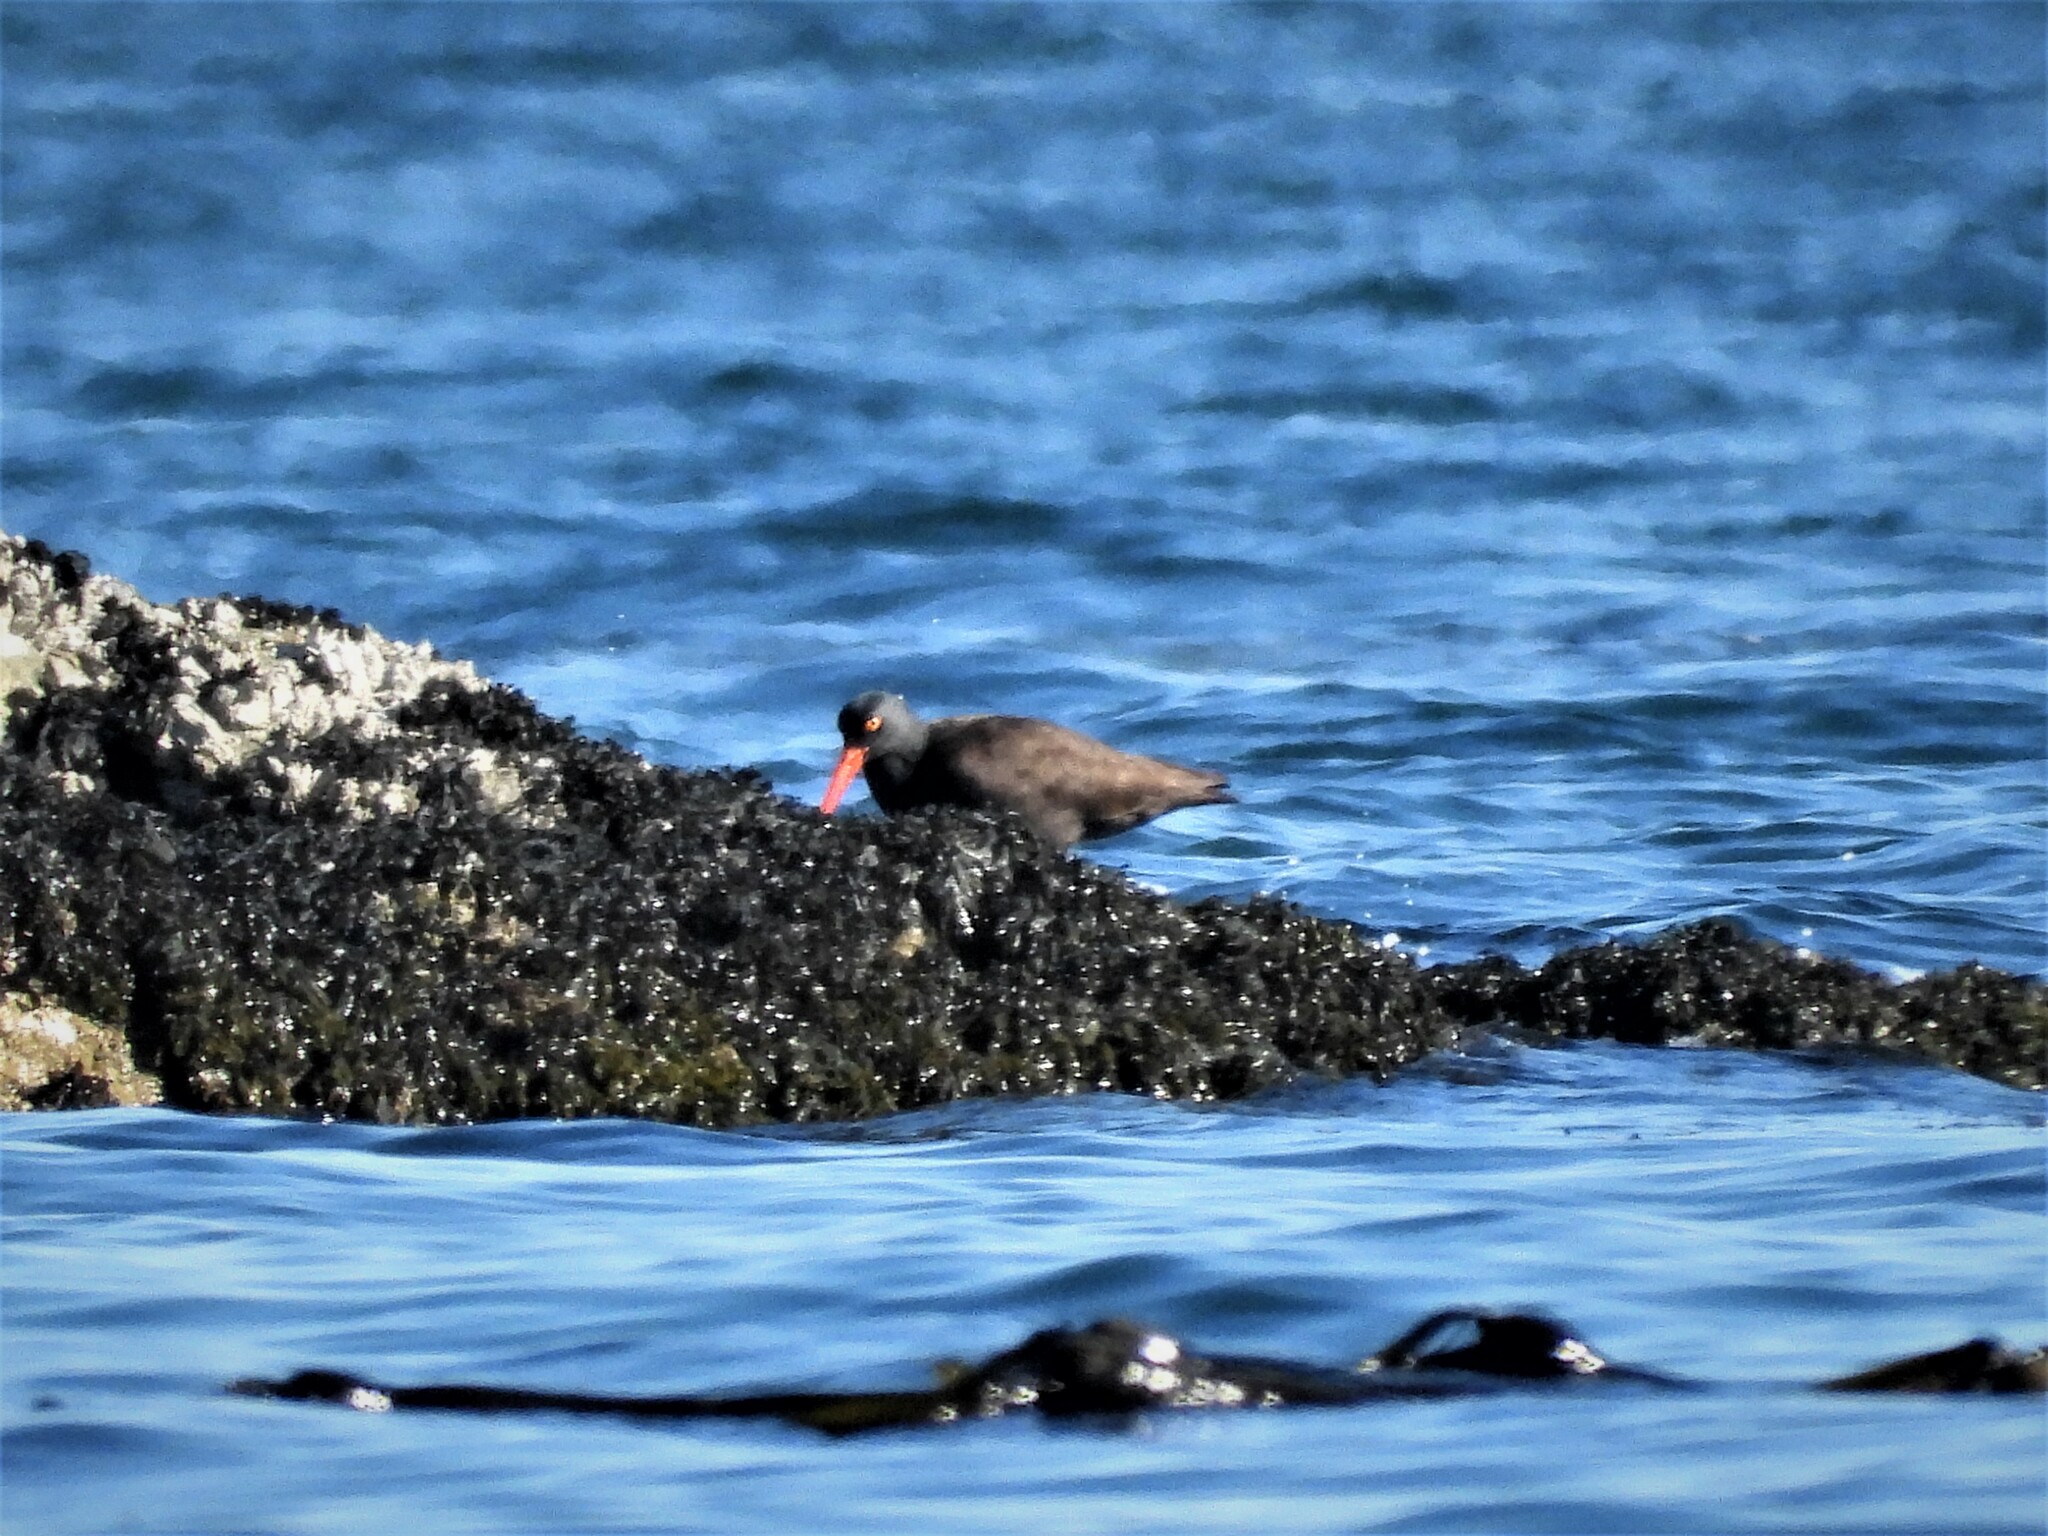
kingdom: Animalia
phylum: Chordata
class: Aves
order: Charadriiformes
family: Haematopodidae
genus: Haematopus
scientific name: Haematopus bachmani
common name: Black oystercatcher
